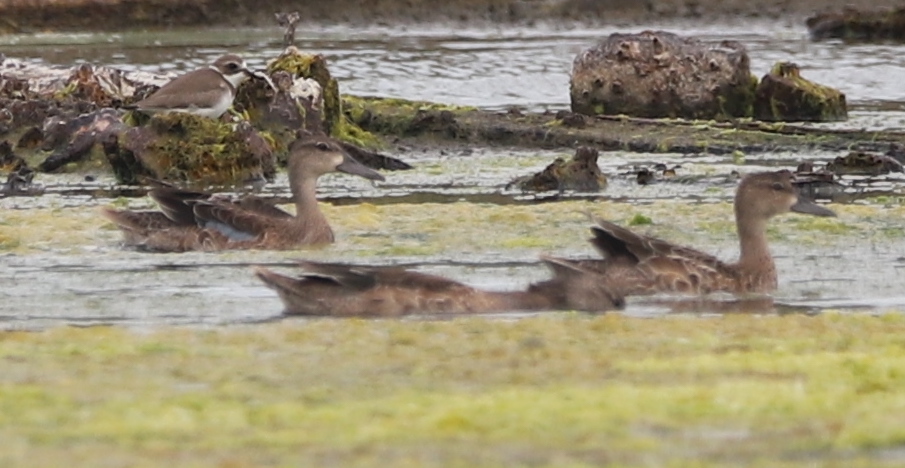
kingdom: Animalia
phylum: Chordata
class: Aves
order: Anseriformes
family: Anatidae
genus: Spatula
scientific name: Spatula discors
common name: Blue-winged teal
